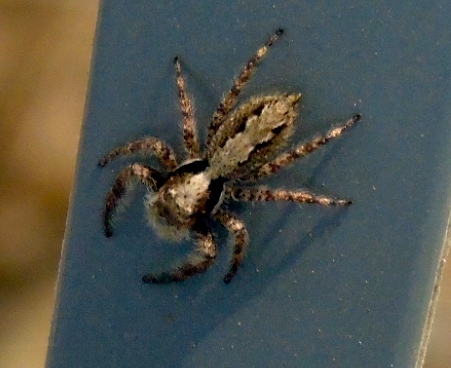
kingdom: Animalia
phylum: Arthropoda
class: Arachnida
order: Araneae
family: Salticidae
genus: Balmaceda
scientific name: Balmaceda
